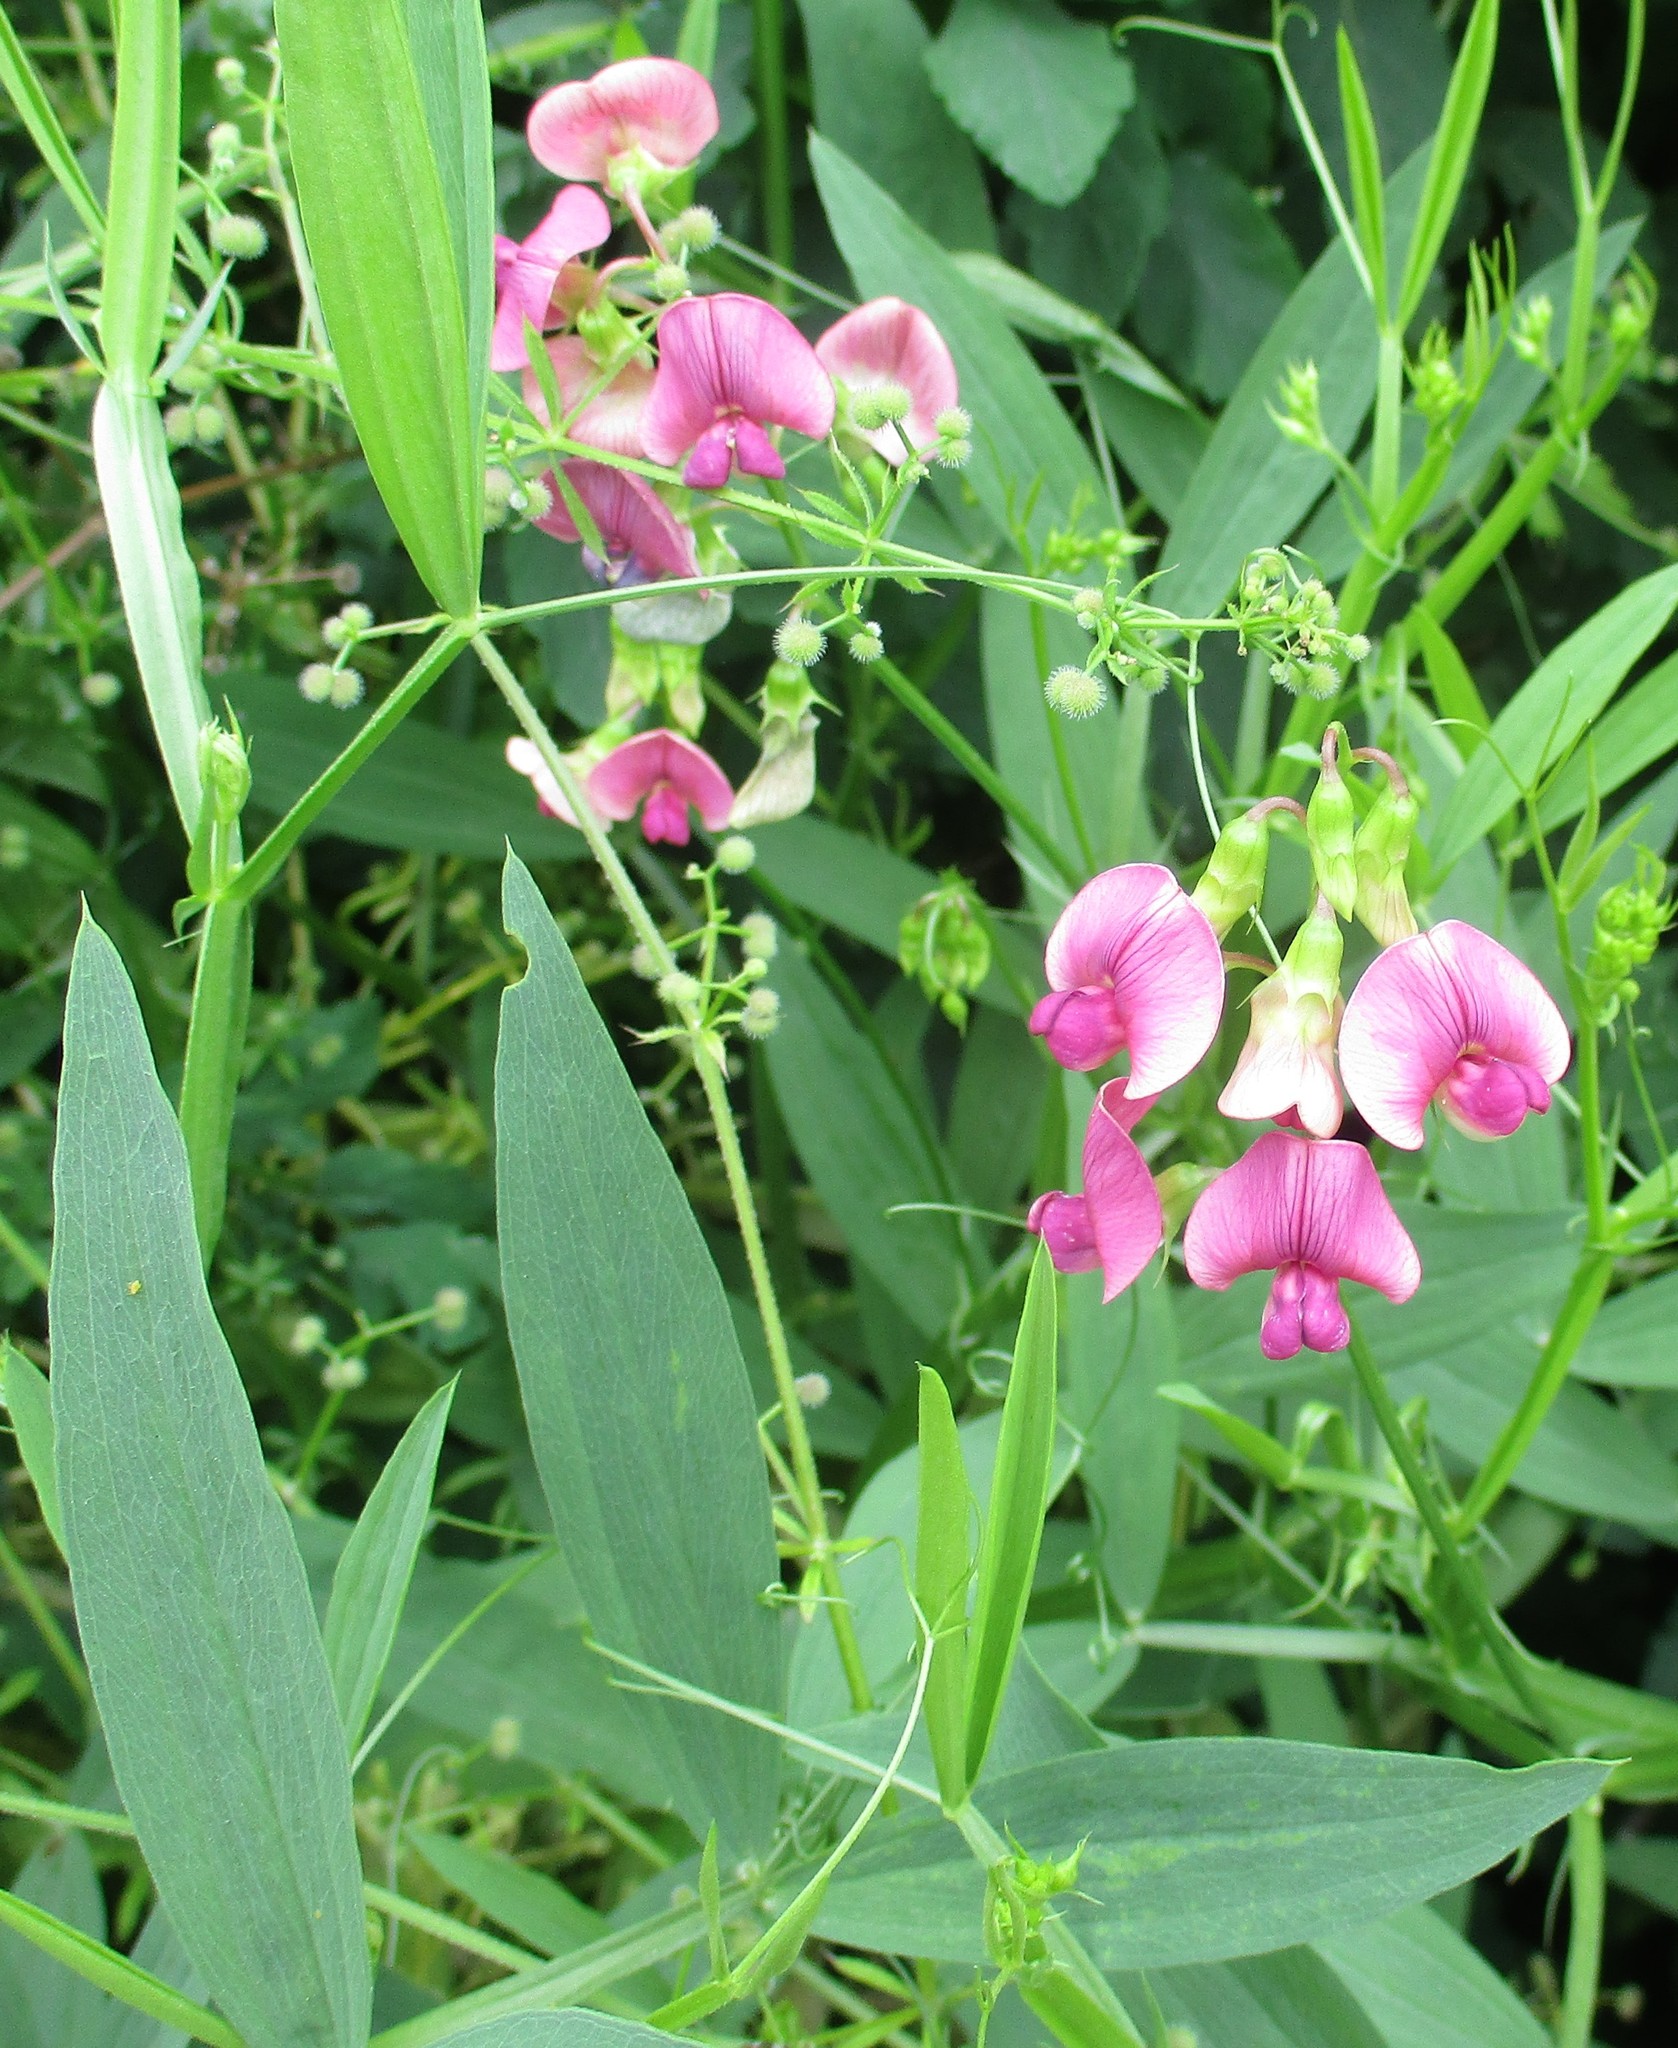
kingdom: Plantae
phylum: Tracheophyta
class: Magnoliopsida
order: Fabales
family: Fabaceae
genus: Lathyrus
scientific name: Lathyrus sylvestris
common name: Flat pea
